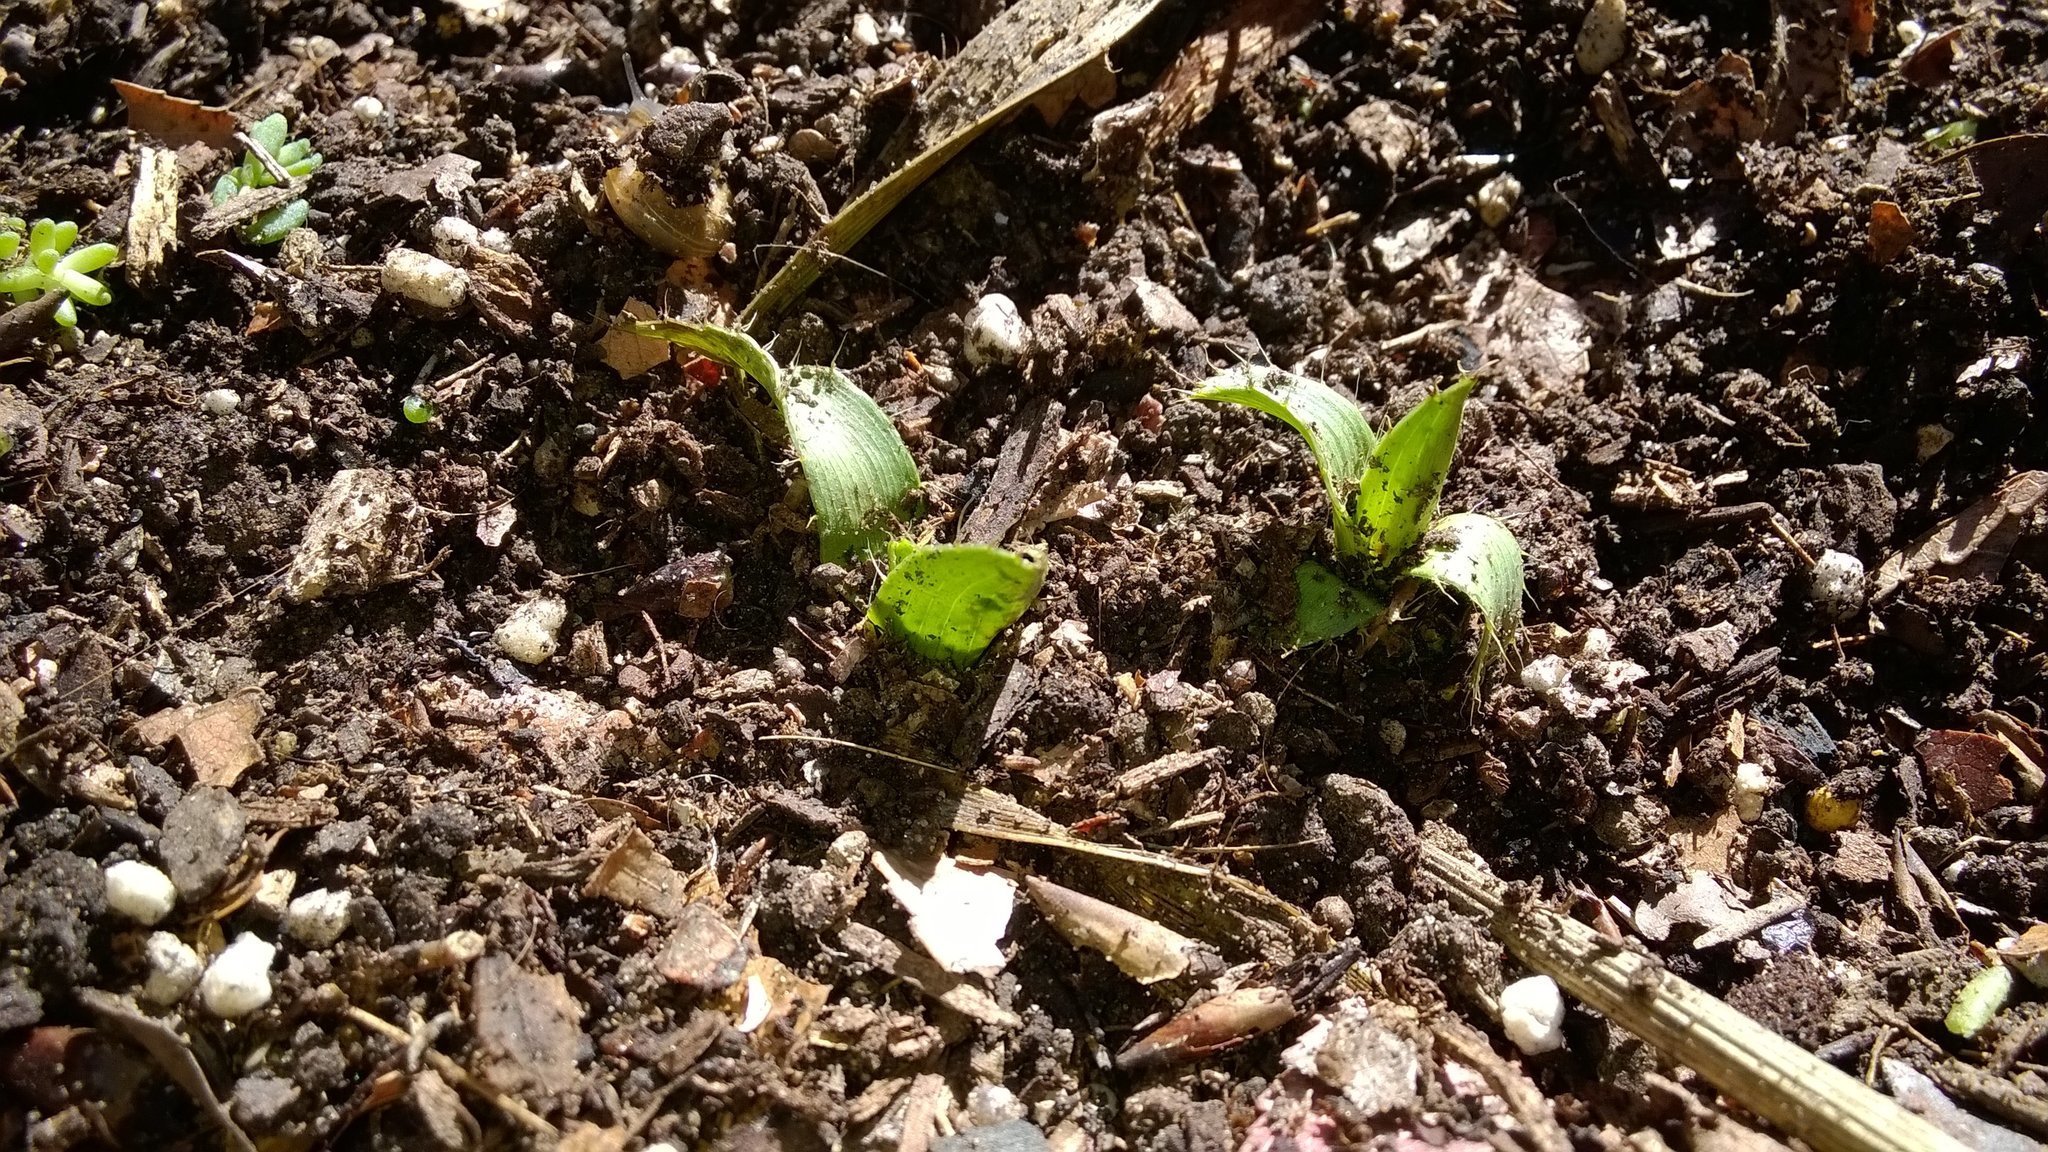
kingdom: Plantae
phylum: Tracheophyta
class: Magnoliopsida
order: Apiales
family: Apiaceae
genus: Eryngium
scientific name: Eryngium yuccifolium
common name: Button eryngo
